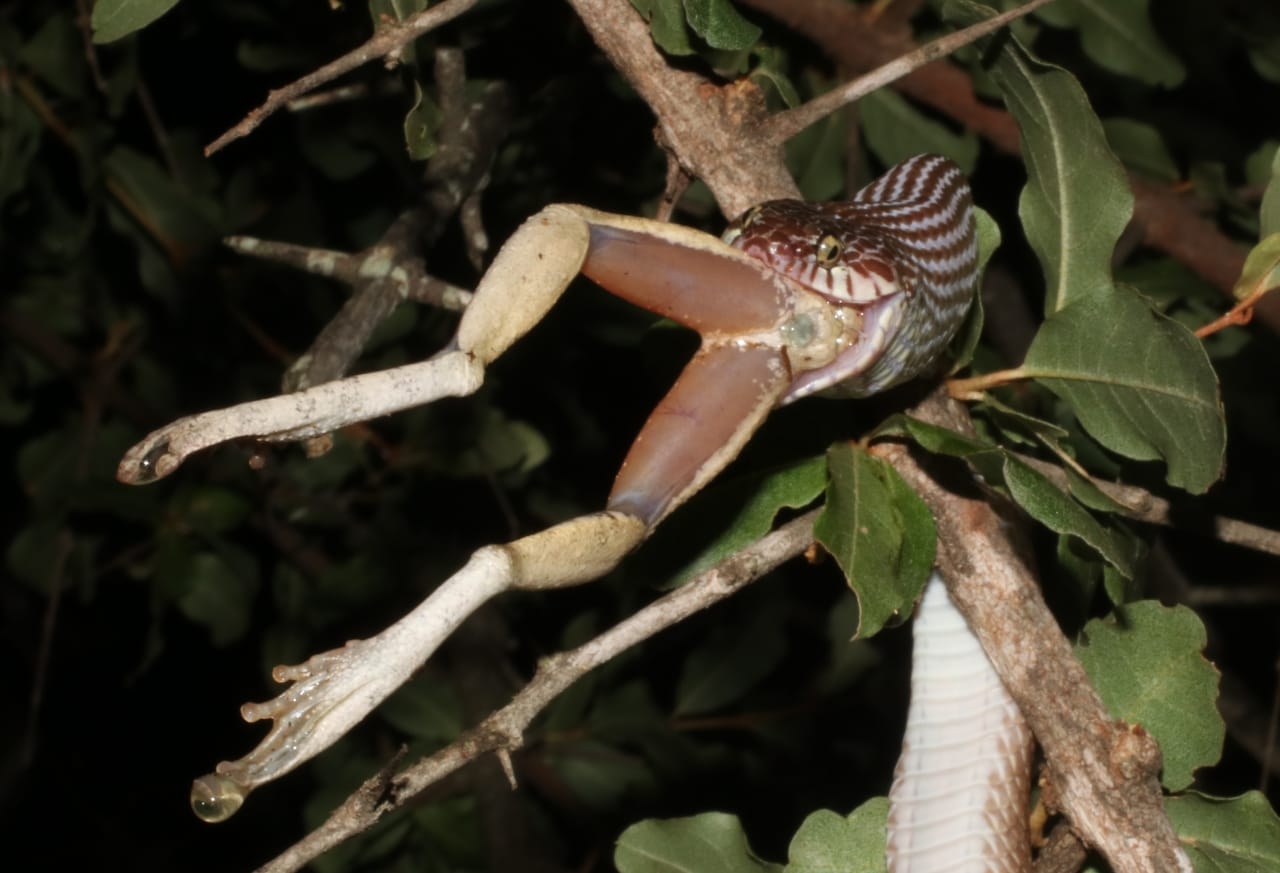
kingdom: Animalia
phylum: Chordata
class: Amphibia
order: Anura
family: Rhacophoridae
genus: Chiromantis
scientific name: Chiromantis xerampelina
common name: African gray treefrog
